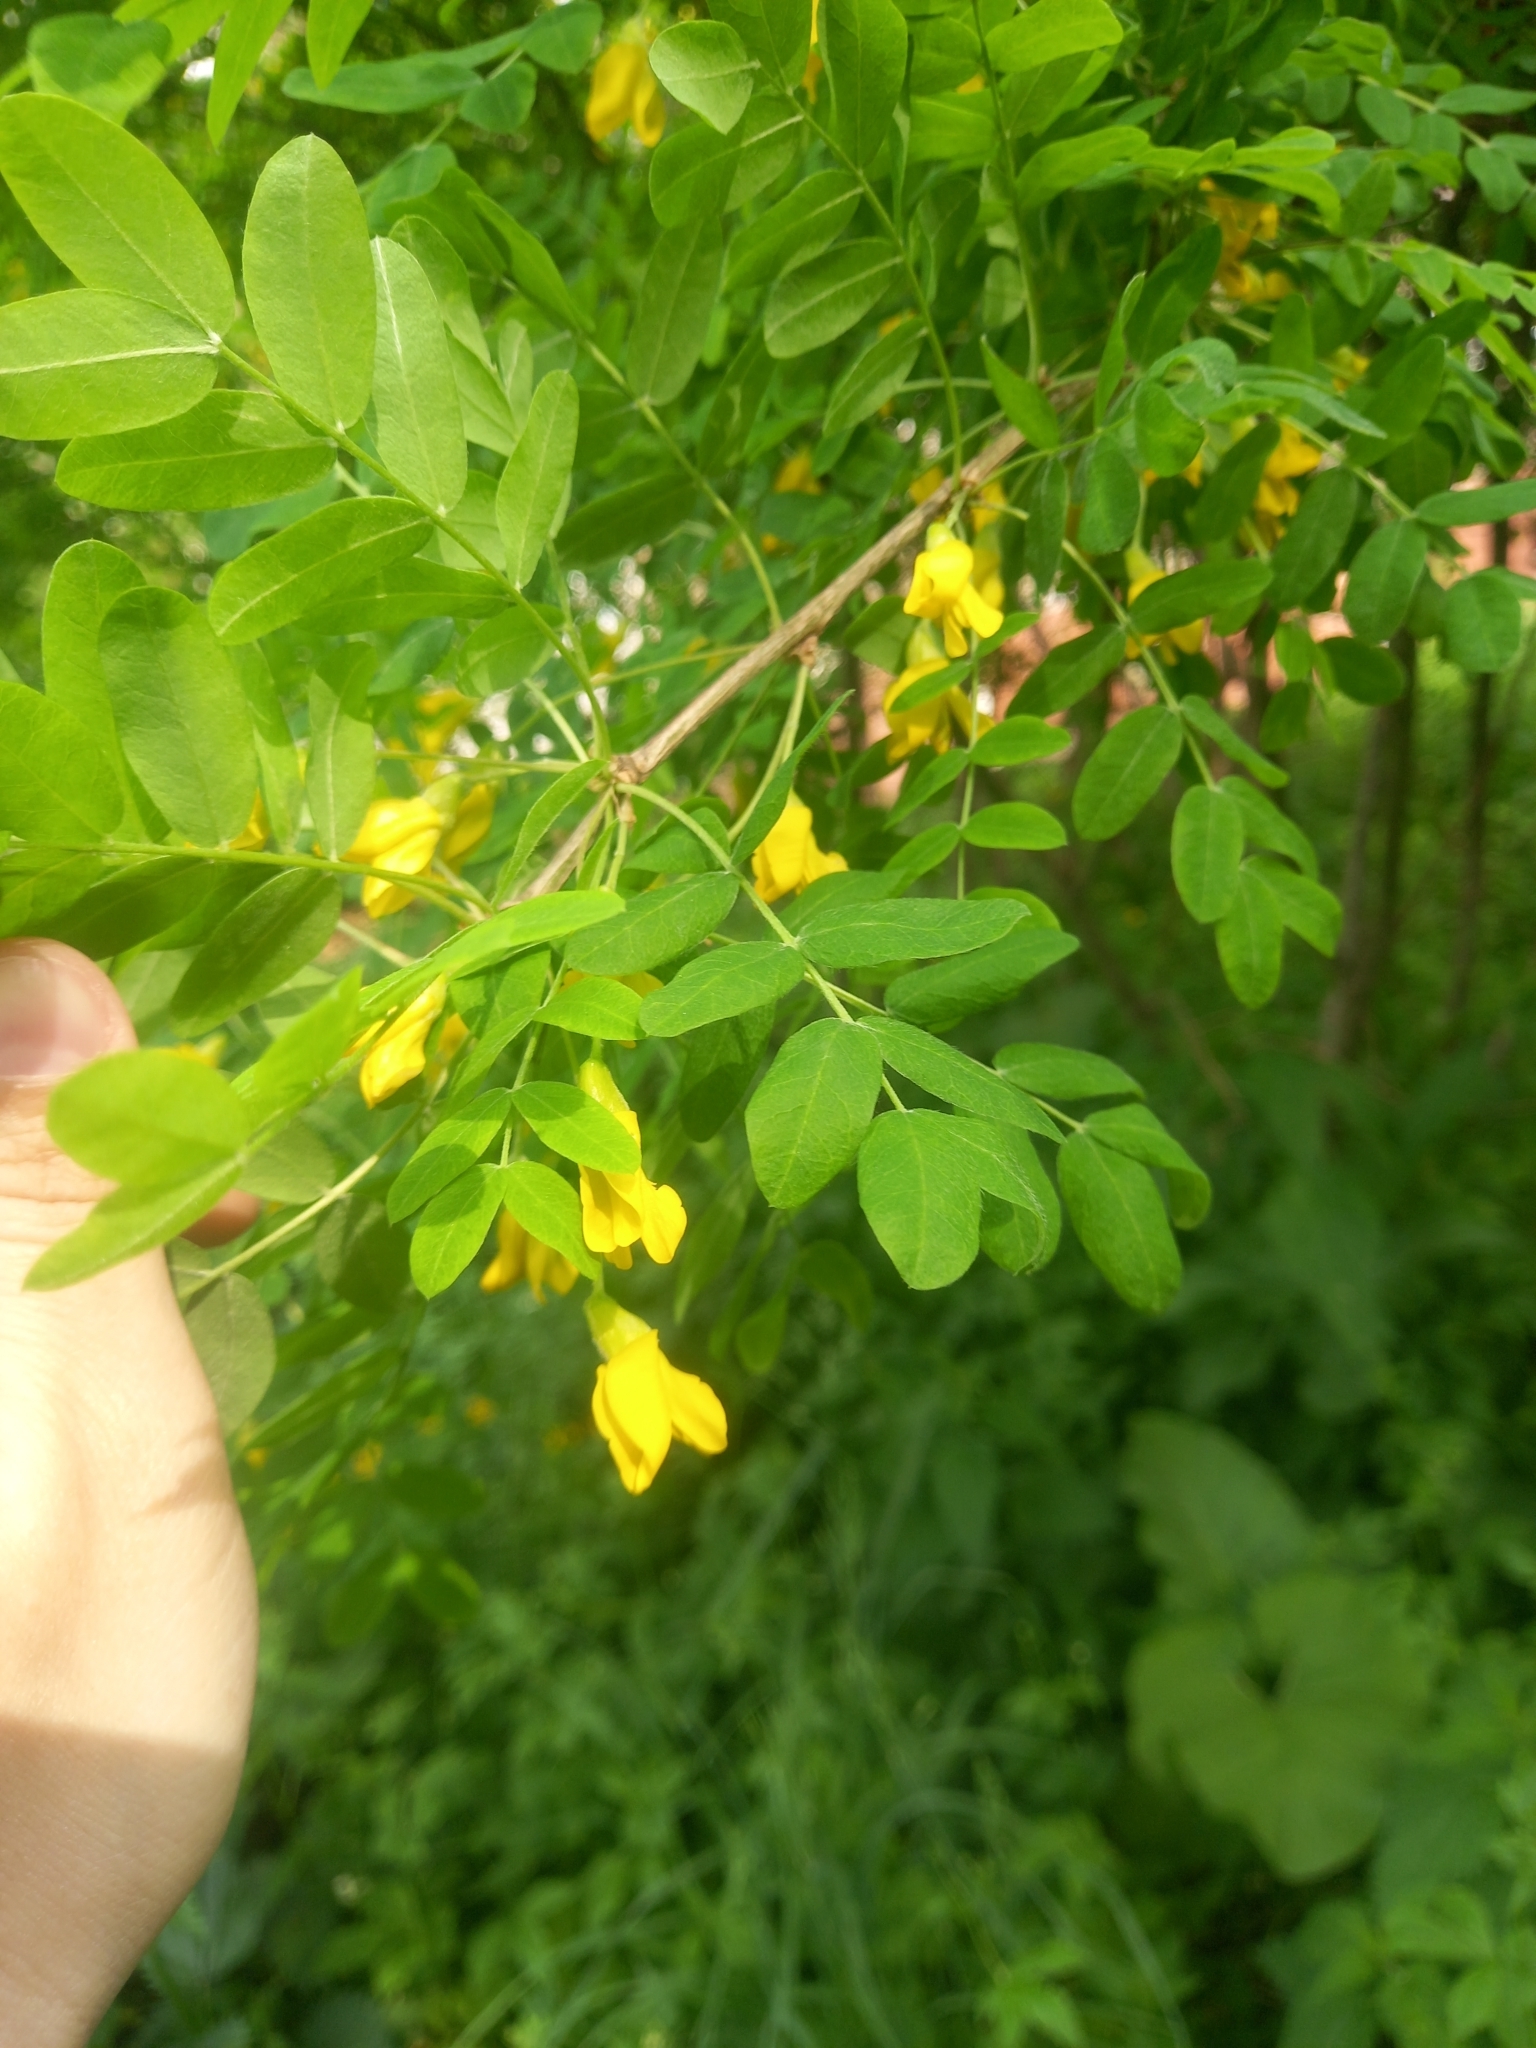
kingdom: Plantae
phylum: Tracheophyta
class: Magnoliopsida
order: Fabales
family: Fabaceae
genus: Caragana
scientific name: Caragana arborescens
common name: Siberian peashrub
